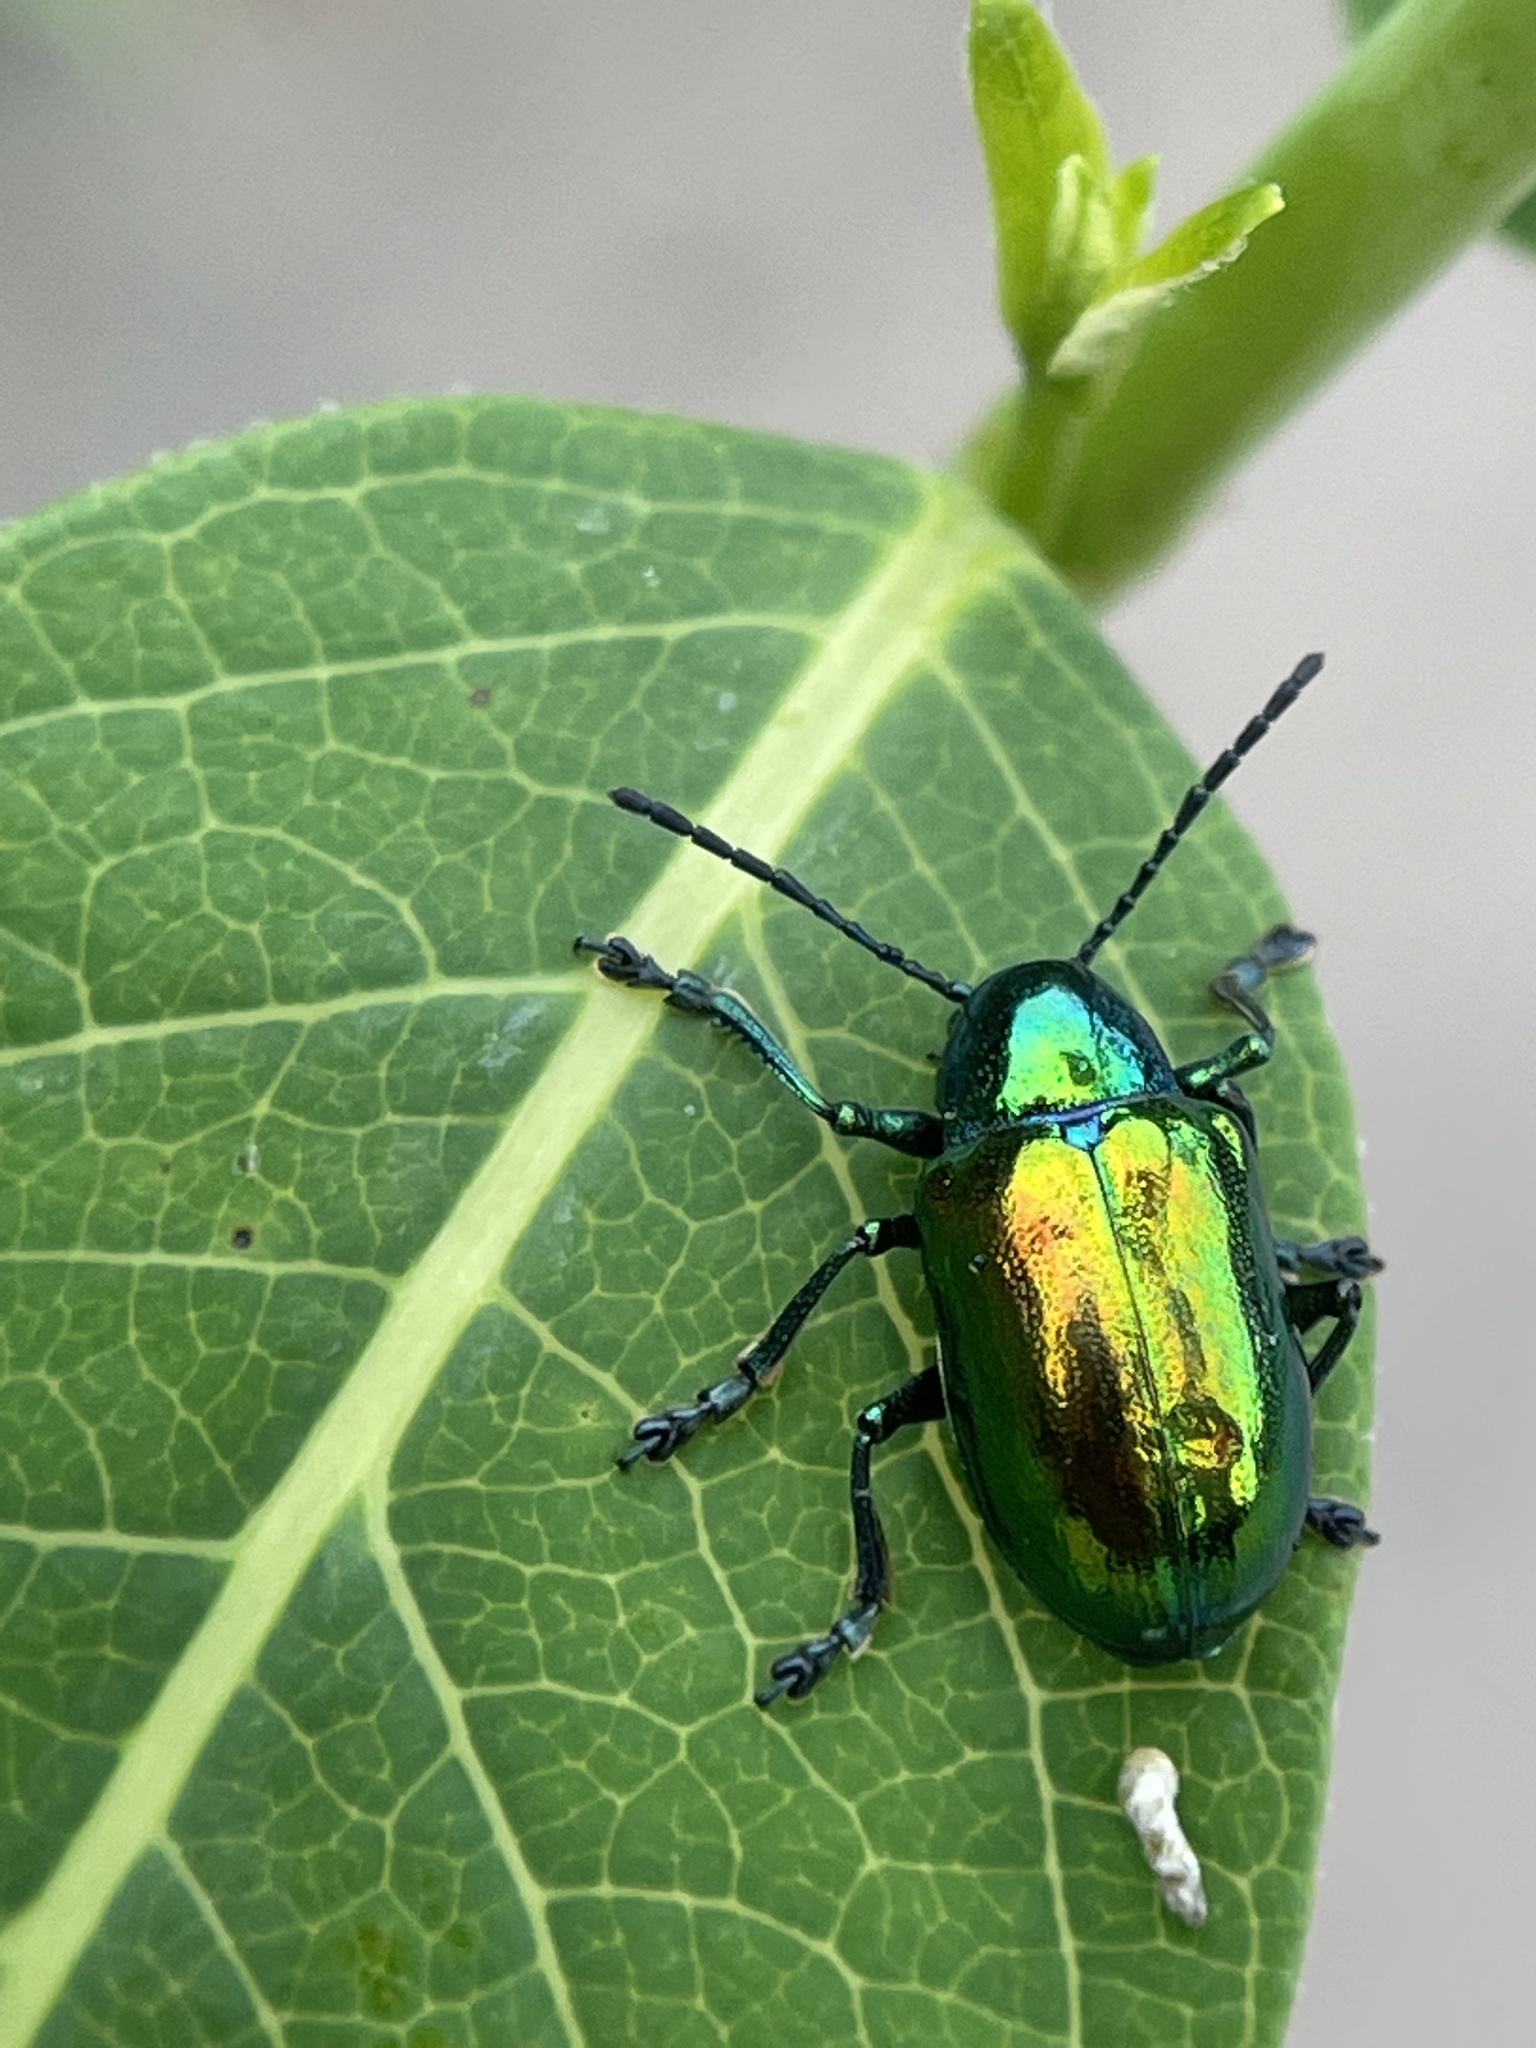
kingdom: Animalia
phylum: Arthropoda
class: Insecta
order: Coleoptera
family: Chrysomelidae
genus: Chrysochus
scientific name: Chrysochus auratus
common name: Dogbane leaf beetle
